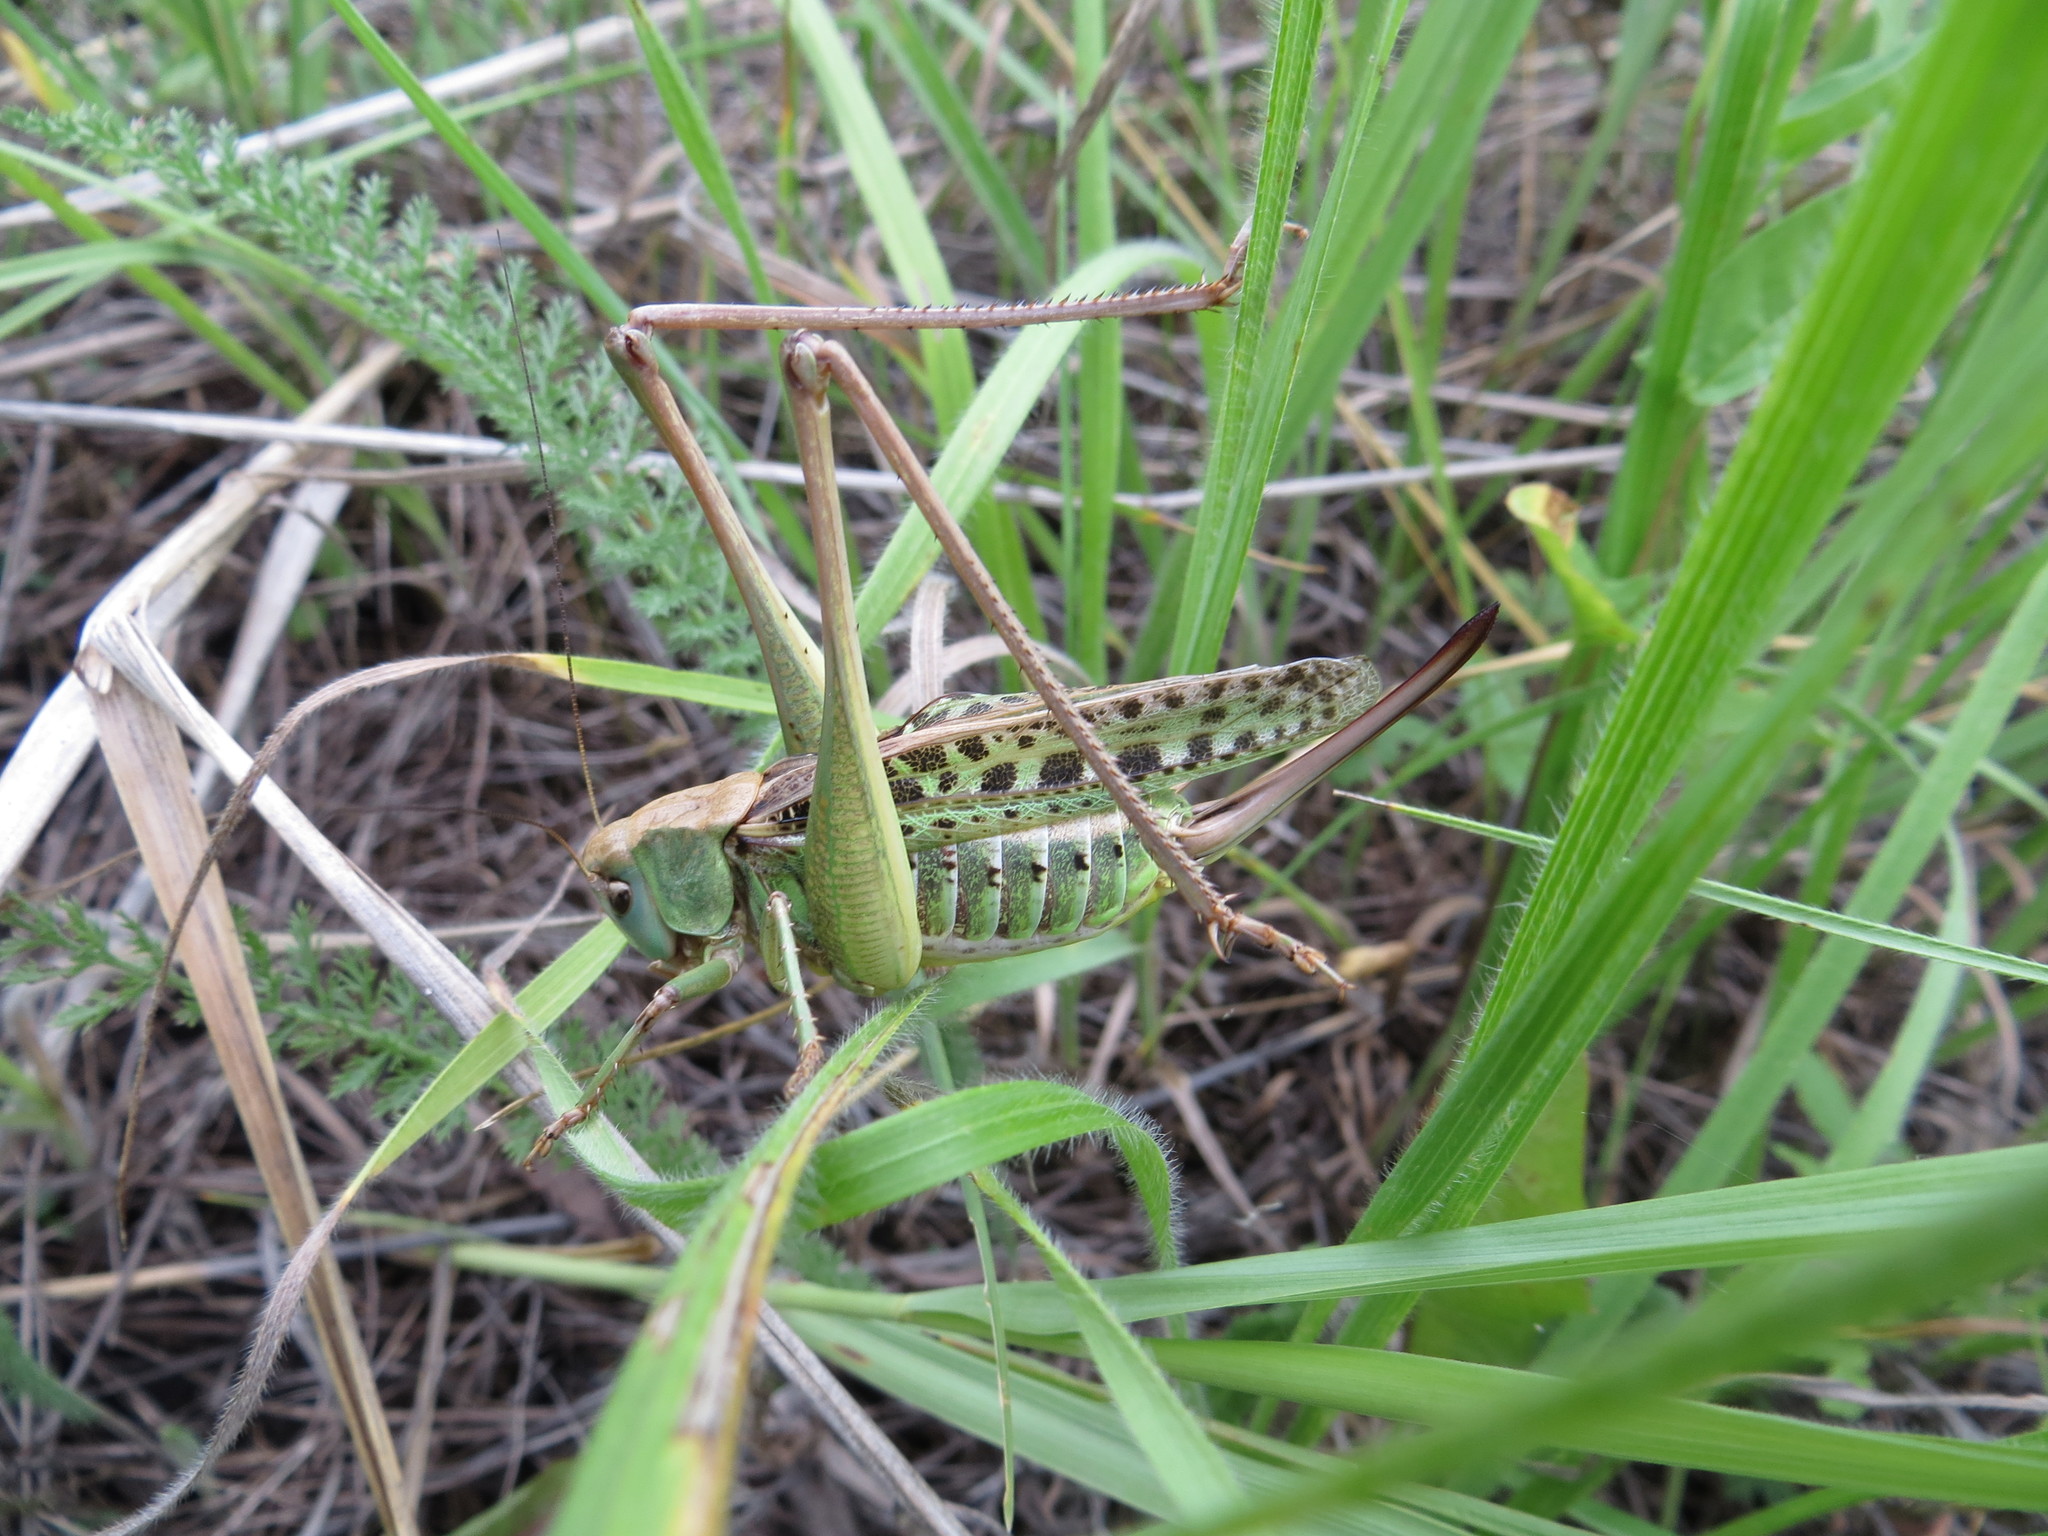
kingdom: Animalia
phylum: Arthropoda
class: Insecta
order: Orthoptera
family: Tettigoniidae
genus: Decticus
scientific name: Decticus verrucivorus
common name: Wart-biter
